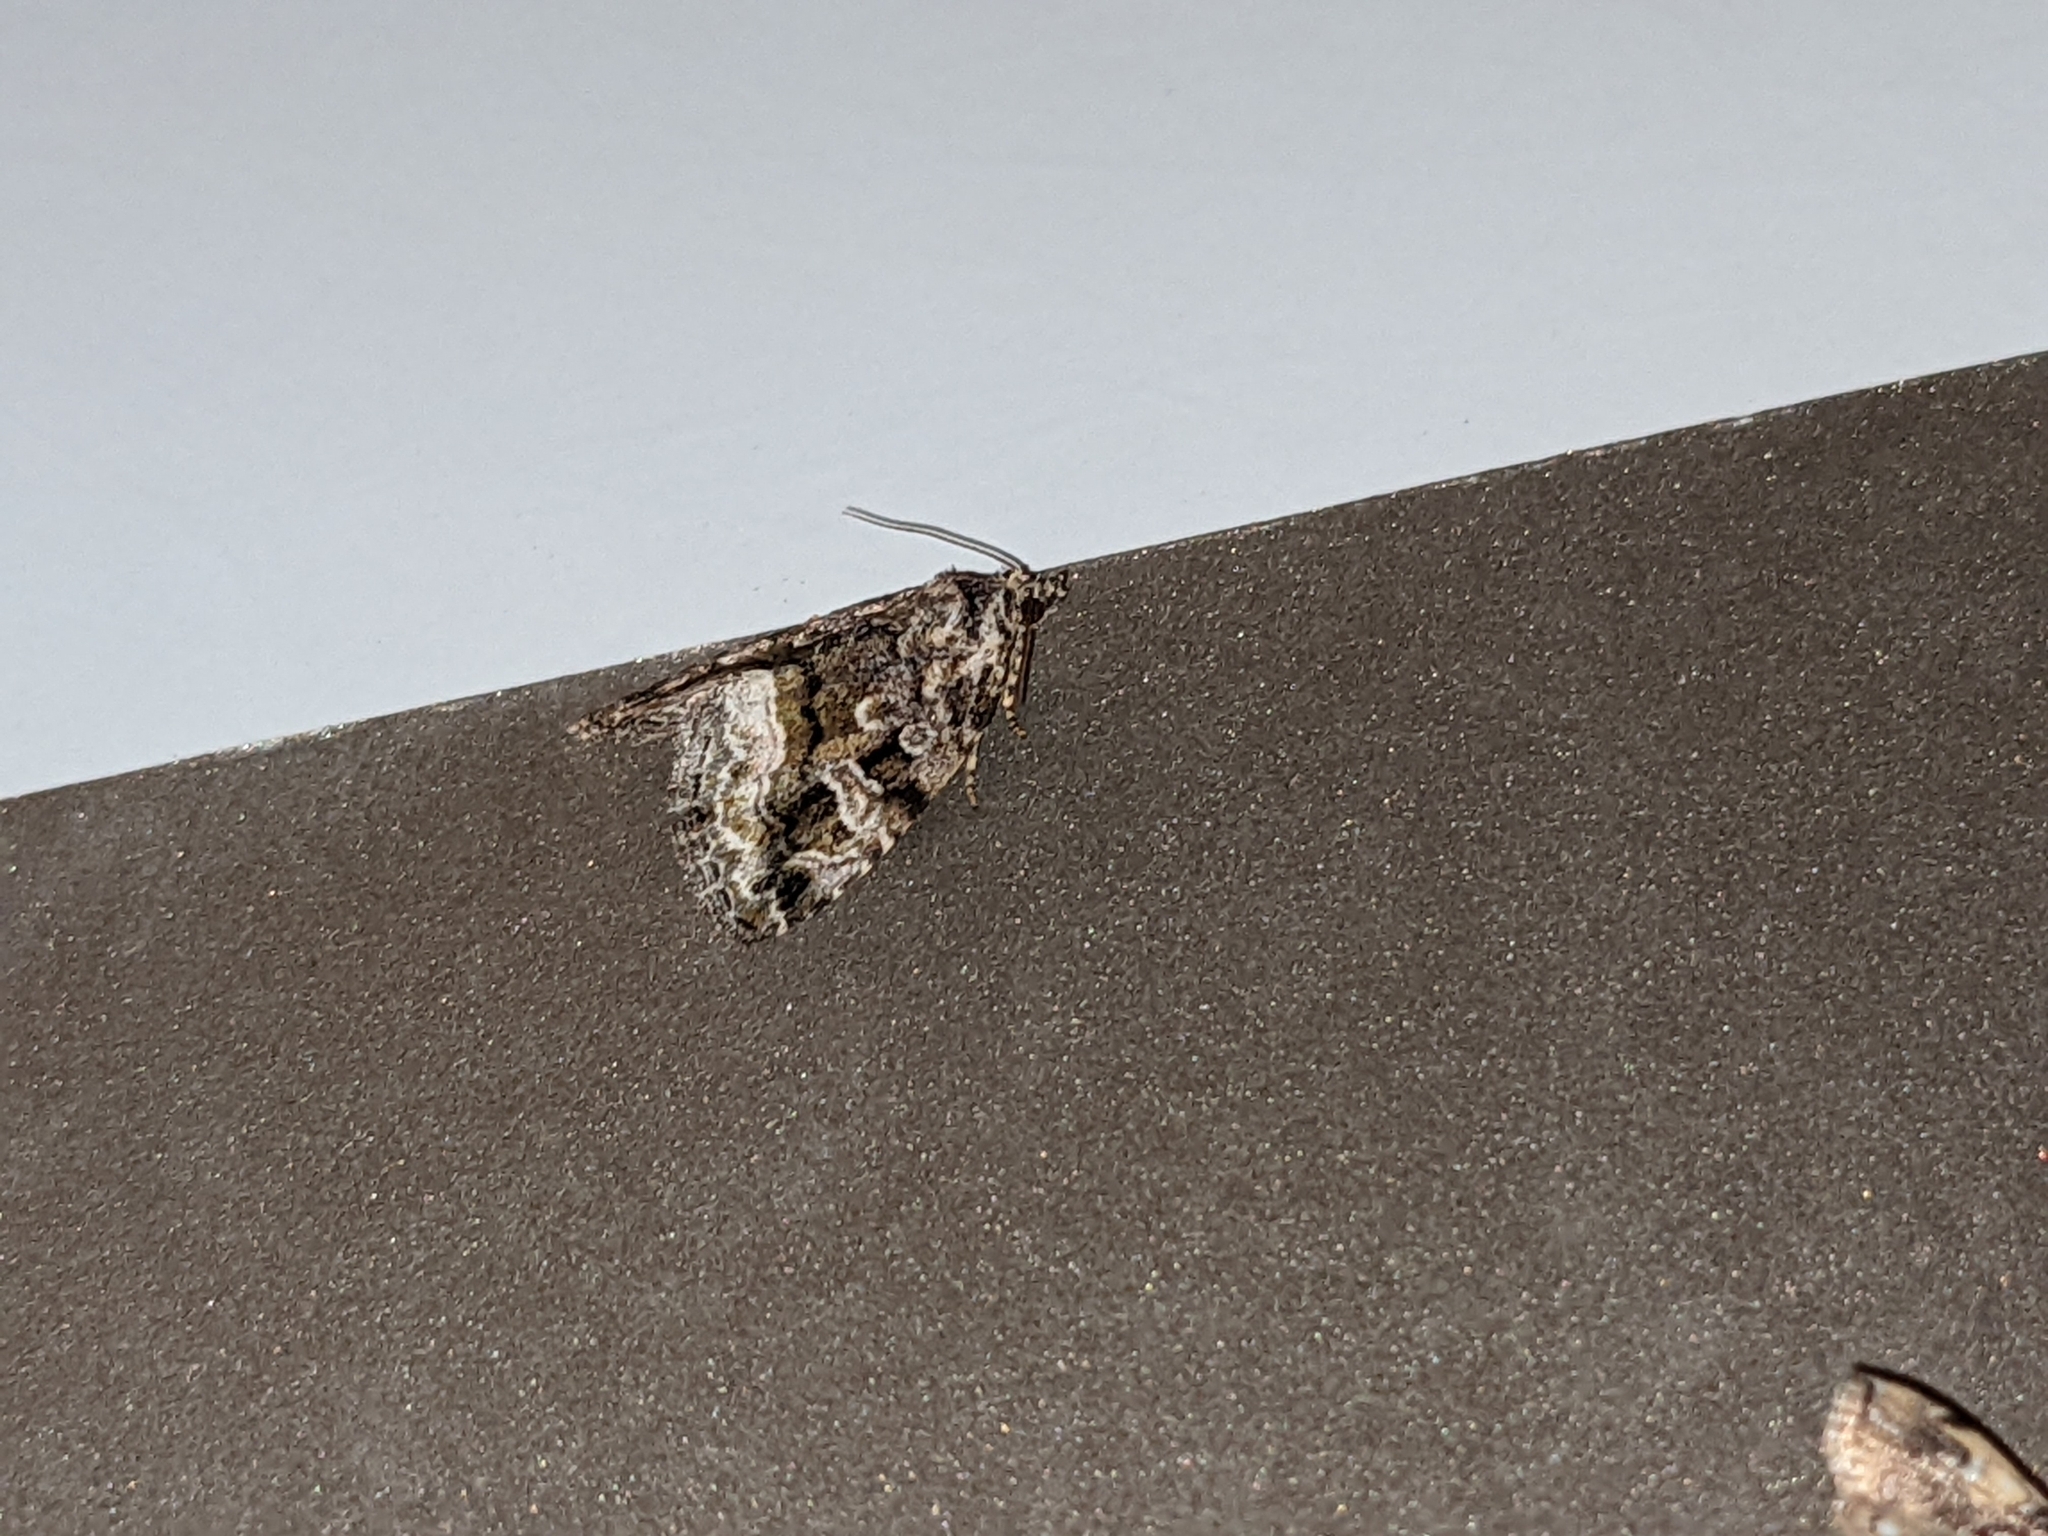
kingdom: Animalia
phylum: Arthropoda
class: Insecta
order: Lepidoptera
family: Noctuidae
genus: Protodeltote
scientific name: Protodeltote muscosula
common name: Large mossy glyph
